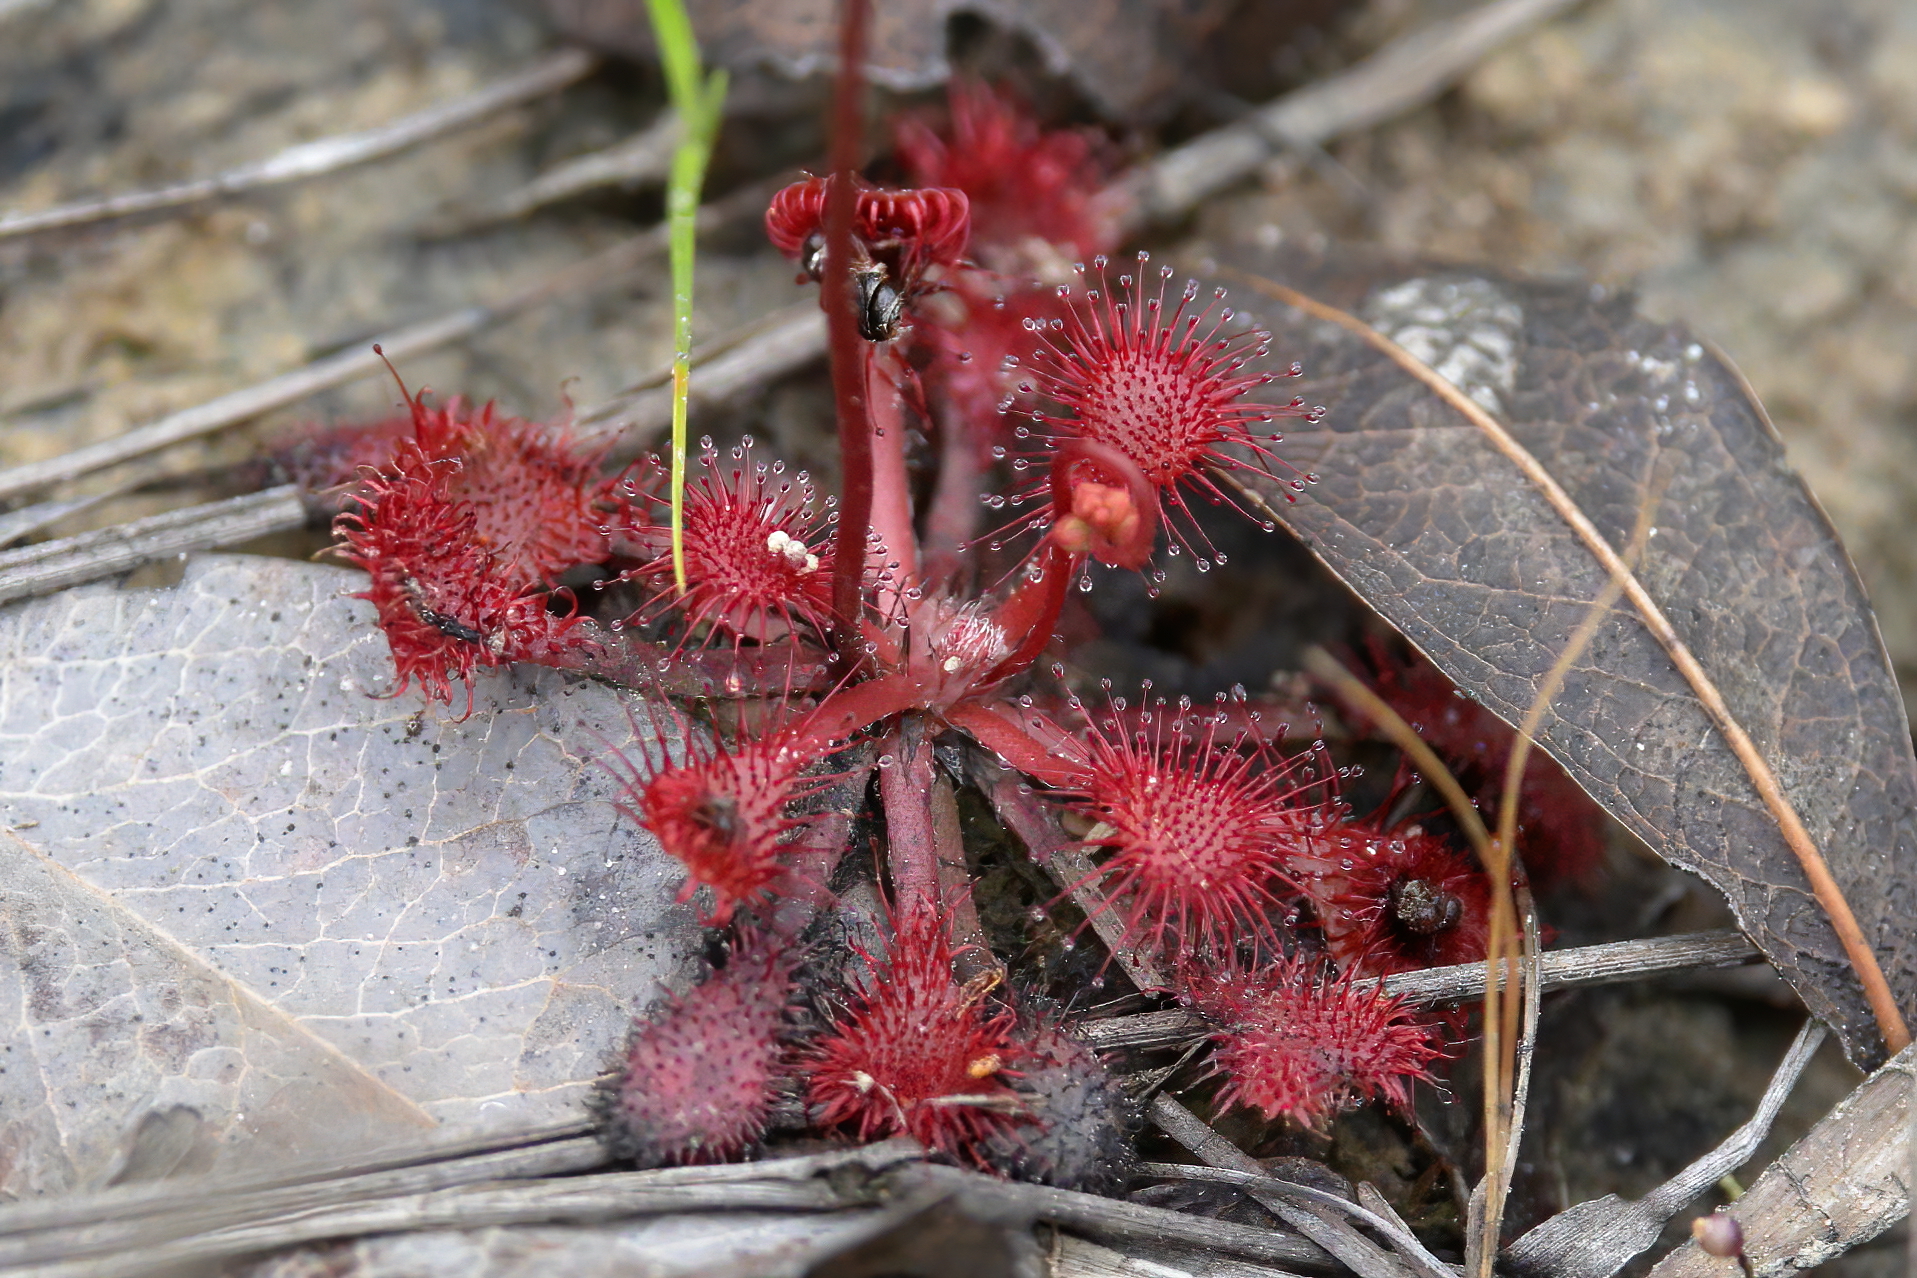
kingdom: Plantae
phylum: Tracheophyta
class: Magnoliopsida
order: Caryophyllales
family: Droseraceae
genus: Drosera
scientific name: Drosera capillaris
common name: Pink sundew
